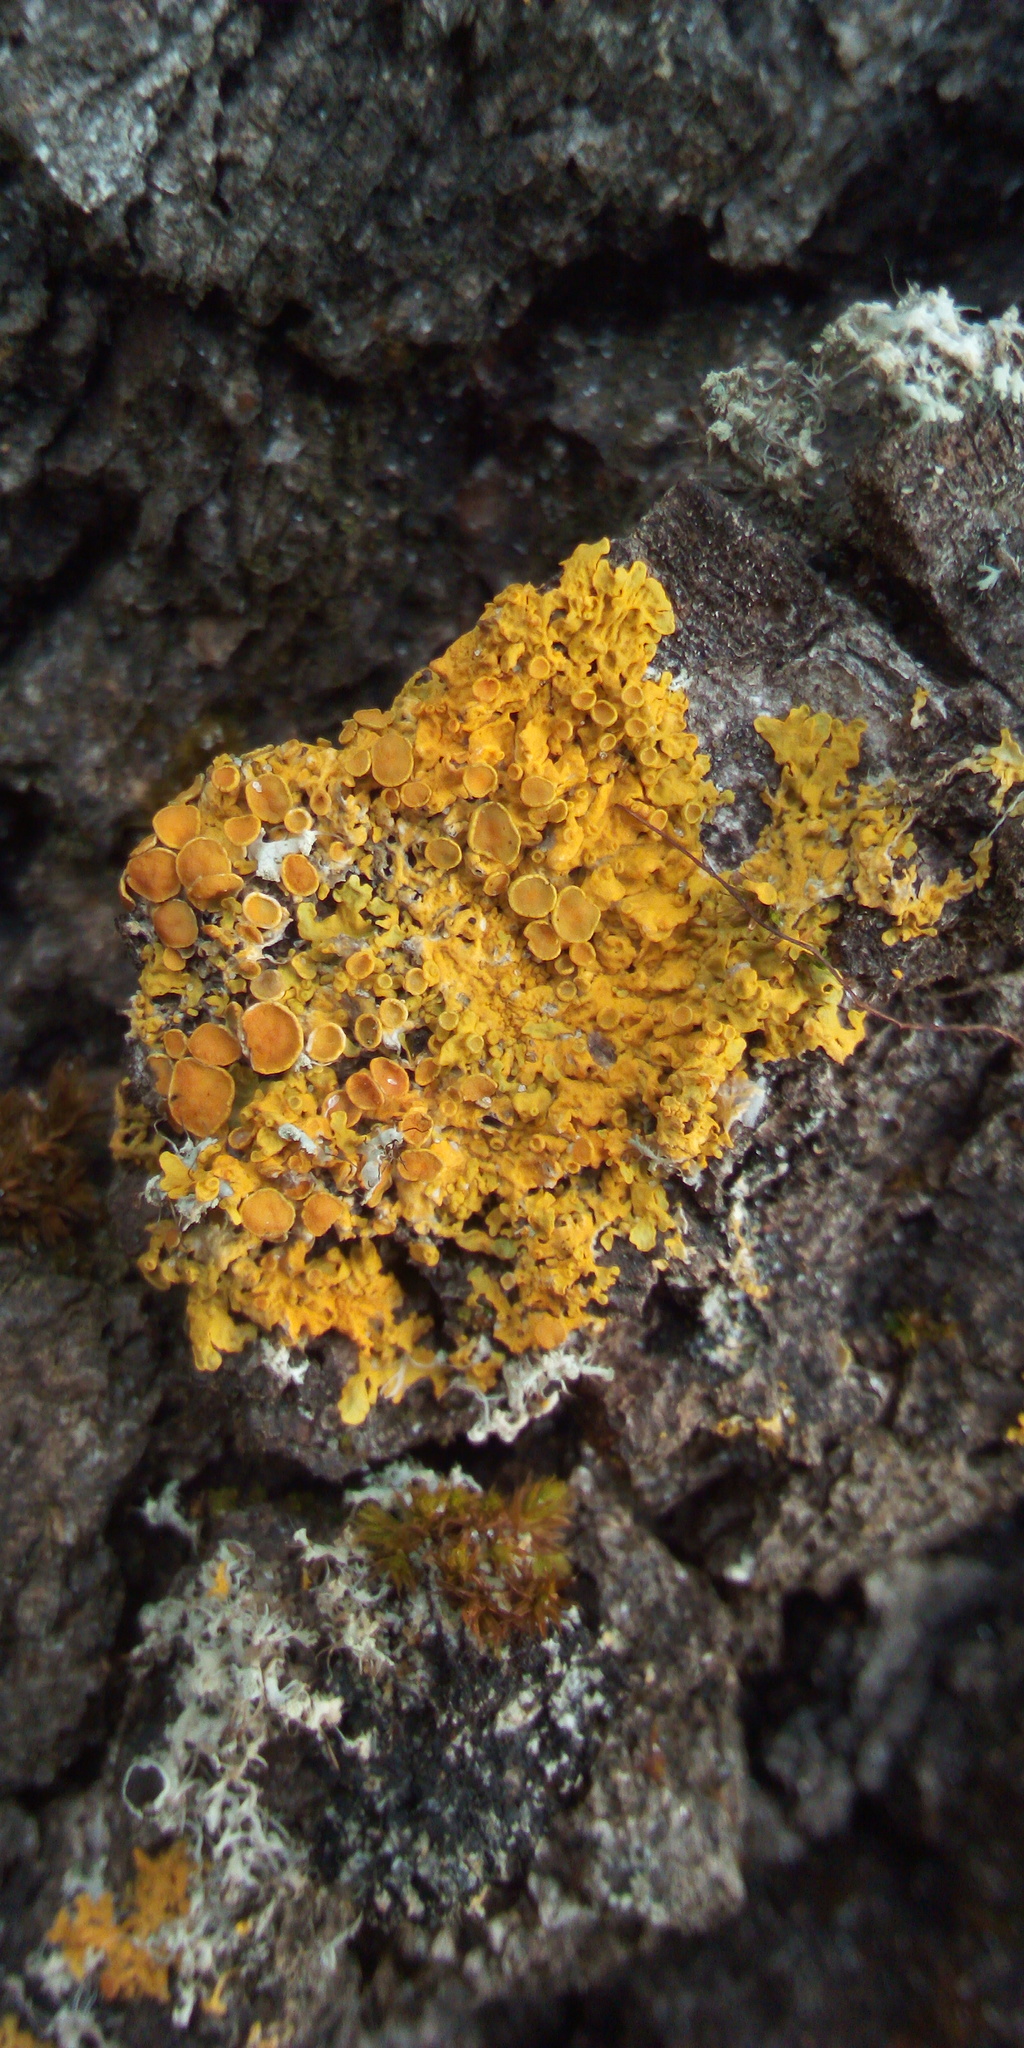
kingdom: Fungi
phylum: Ascomycota
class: Lecanoromycetes
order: Teloschistales
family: Teloschistaceae
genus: Xanthoria
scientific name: Xanthoria parietina
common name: Common orange lichen
